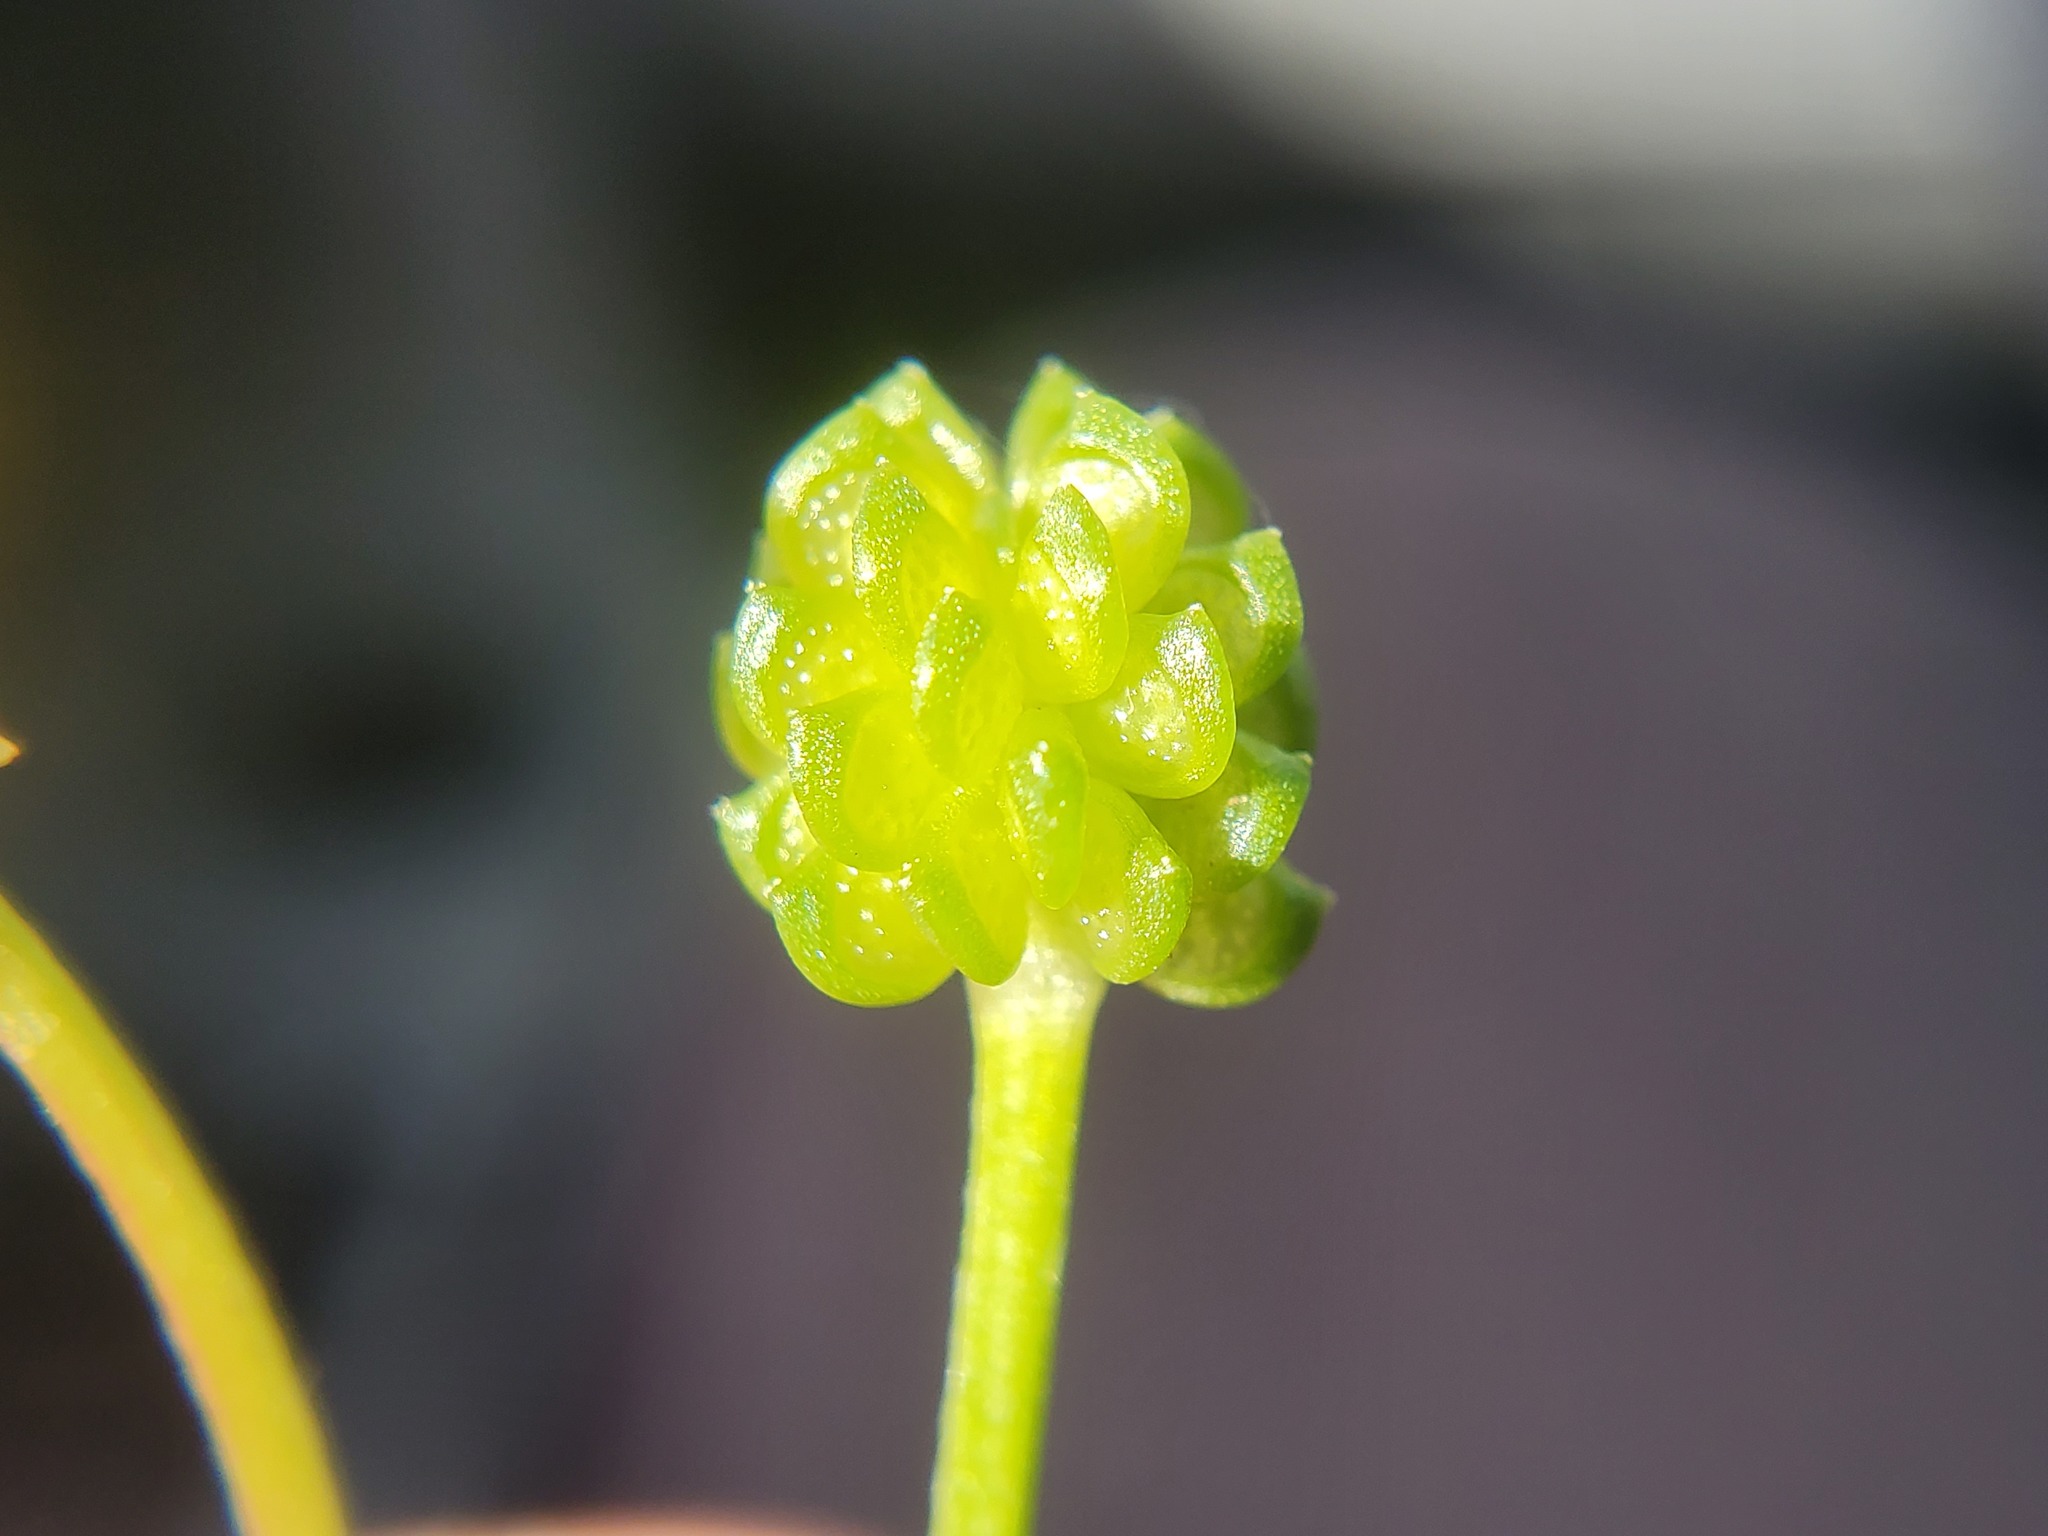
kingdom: Plantae
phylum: Tracheophyta
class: Magnoliopsida
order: Ranunculales
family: Ranunculaceae
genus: Ranunculus
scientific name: Ranunculus muricatus
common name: Rough-fruited buttercup
